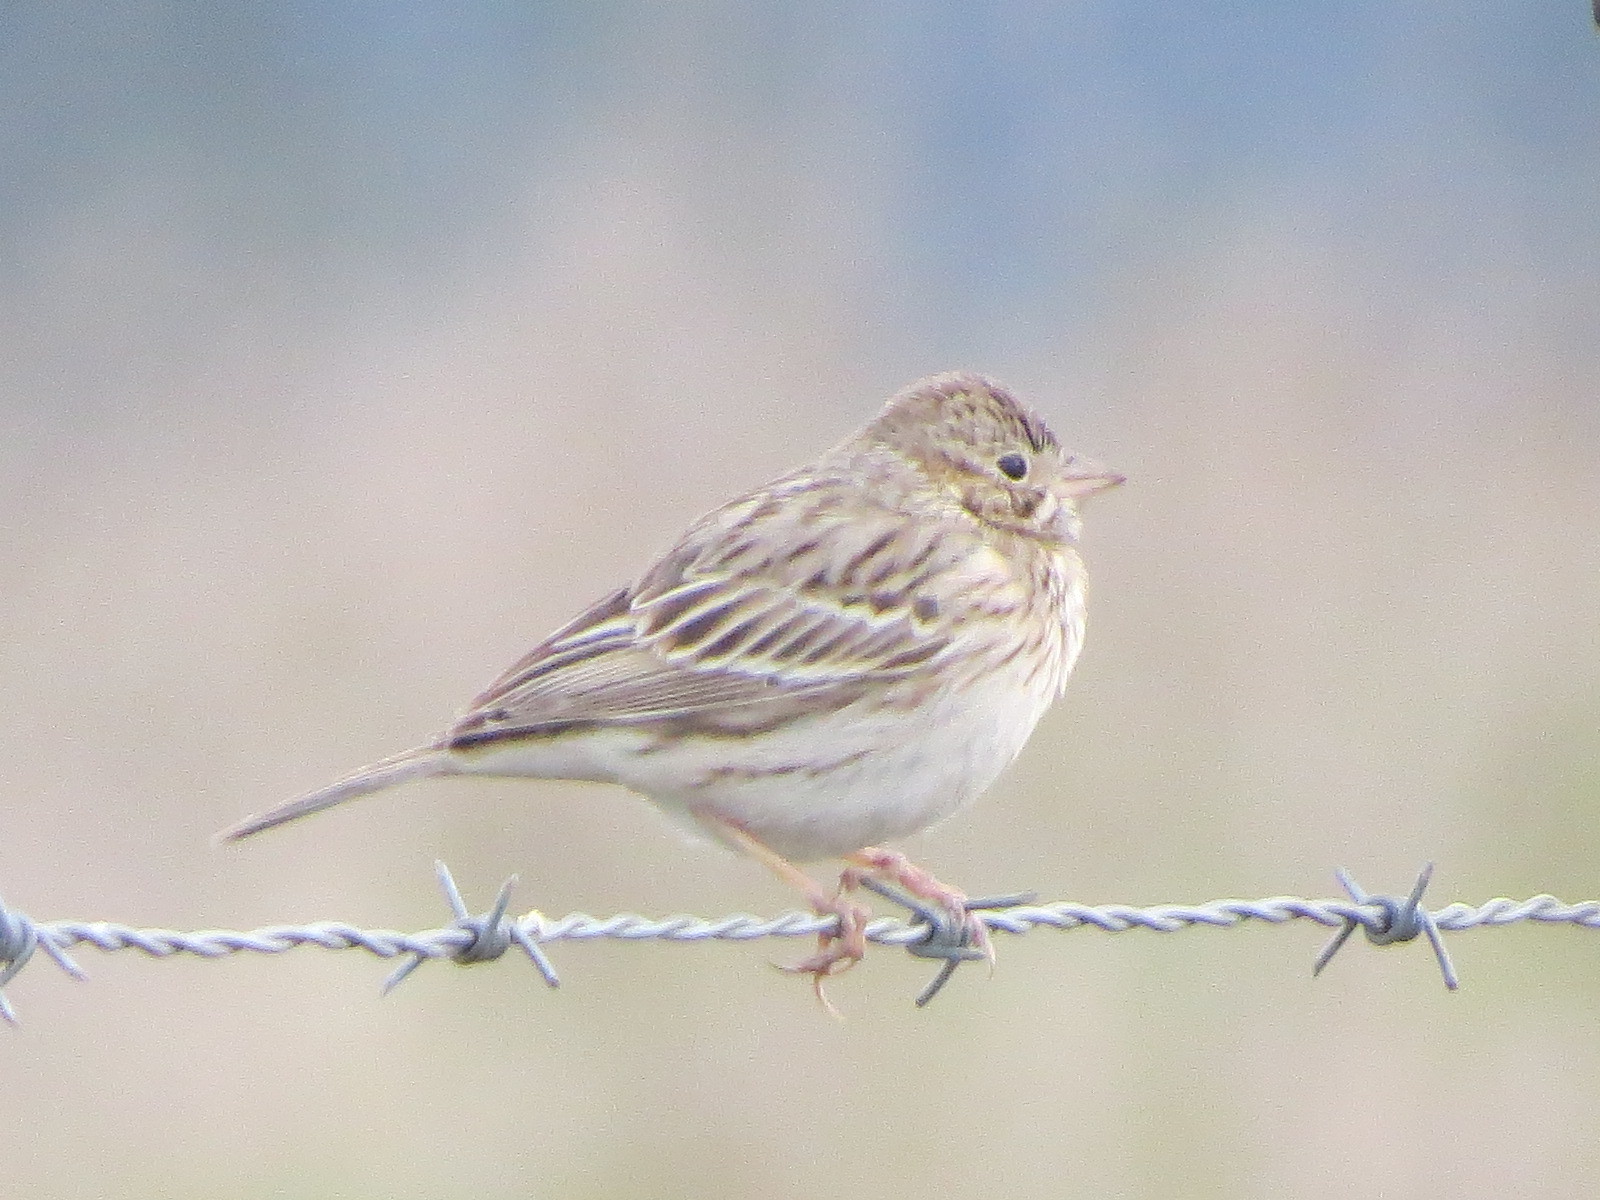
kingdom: Animalia
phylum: Chordata
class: Aves
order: Passeriformes
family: Passerellidae
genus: Pooecetes
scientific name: Pooecetes gramineus
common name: Vesper sparrow
